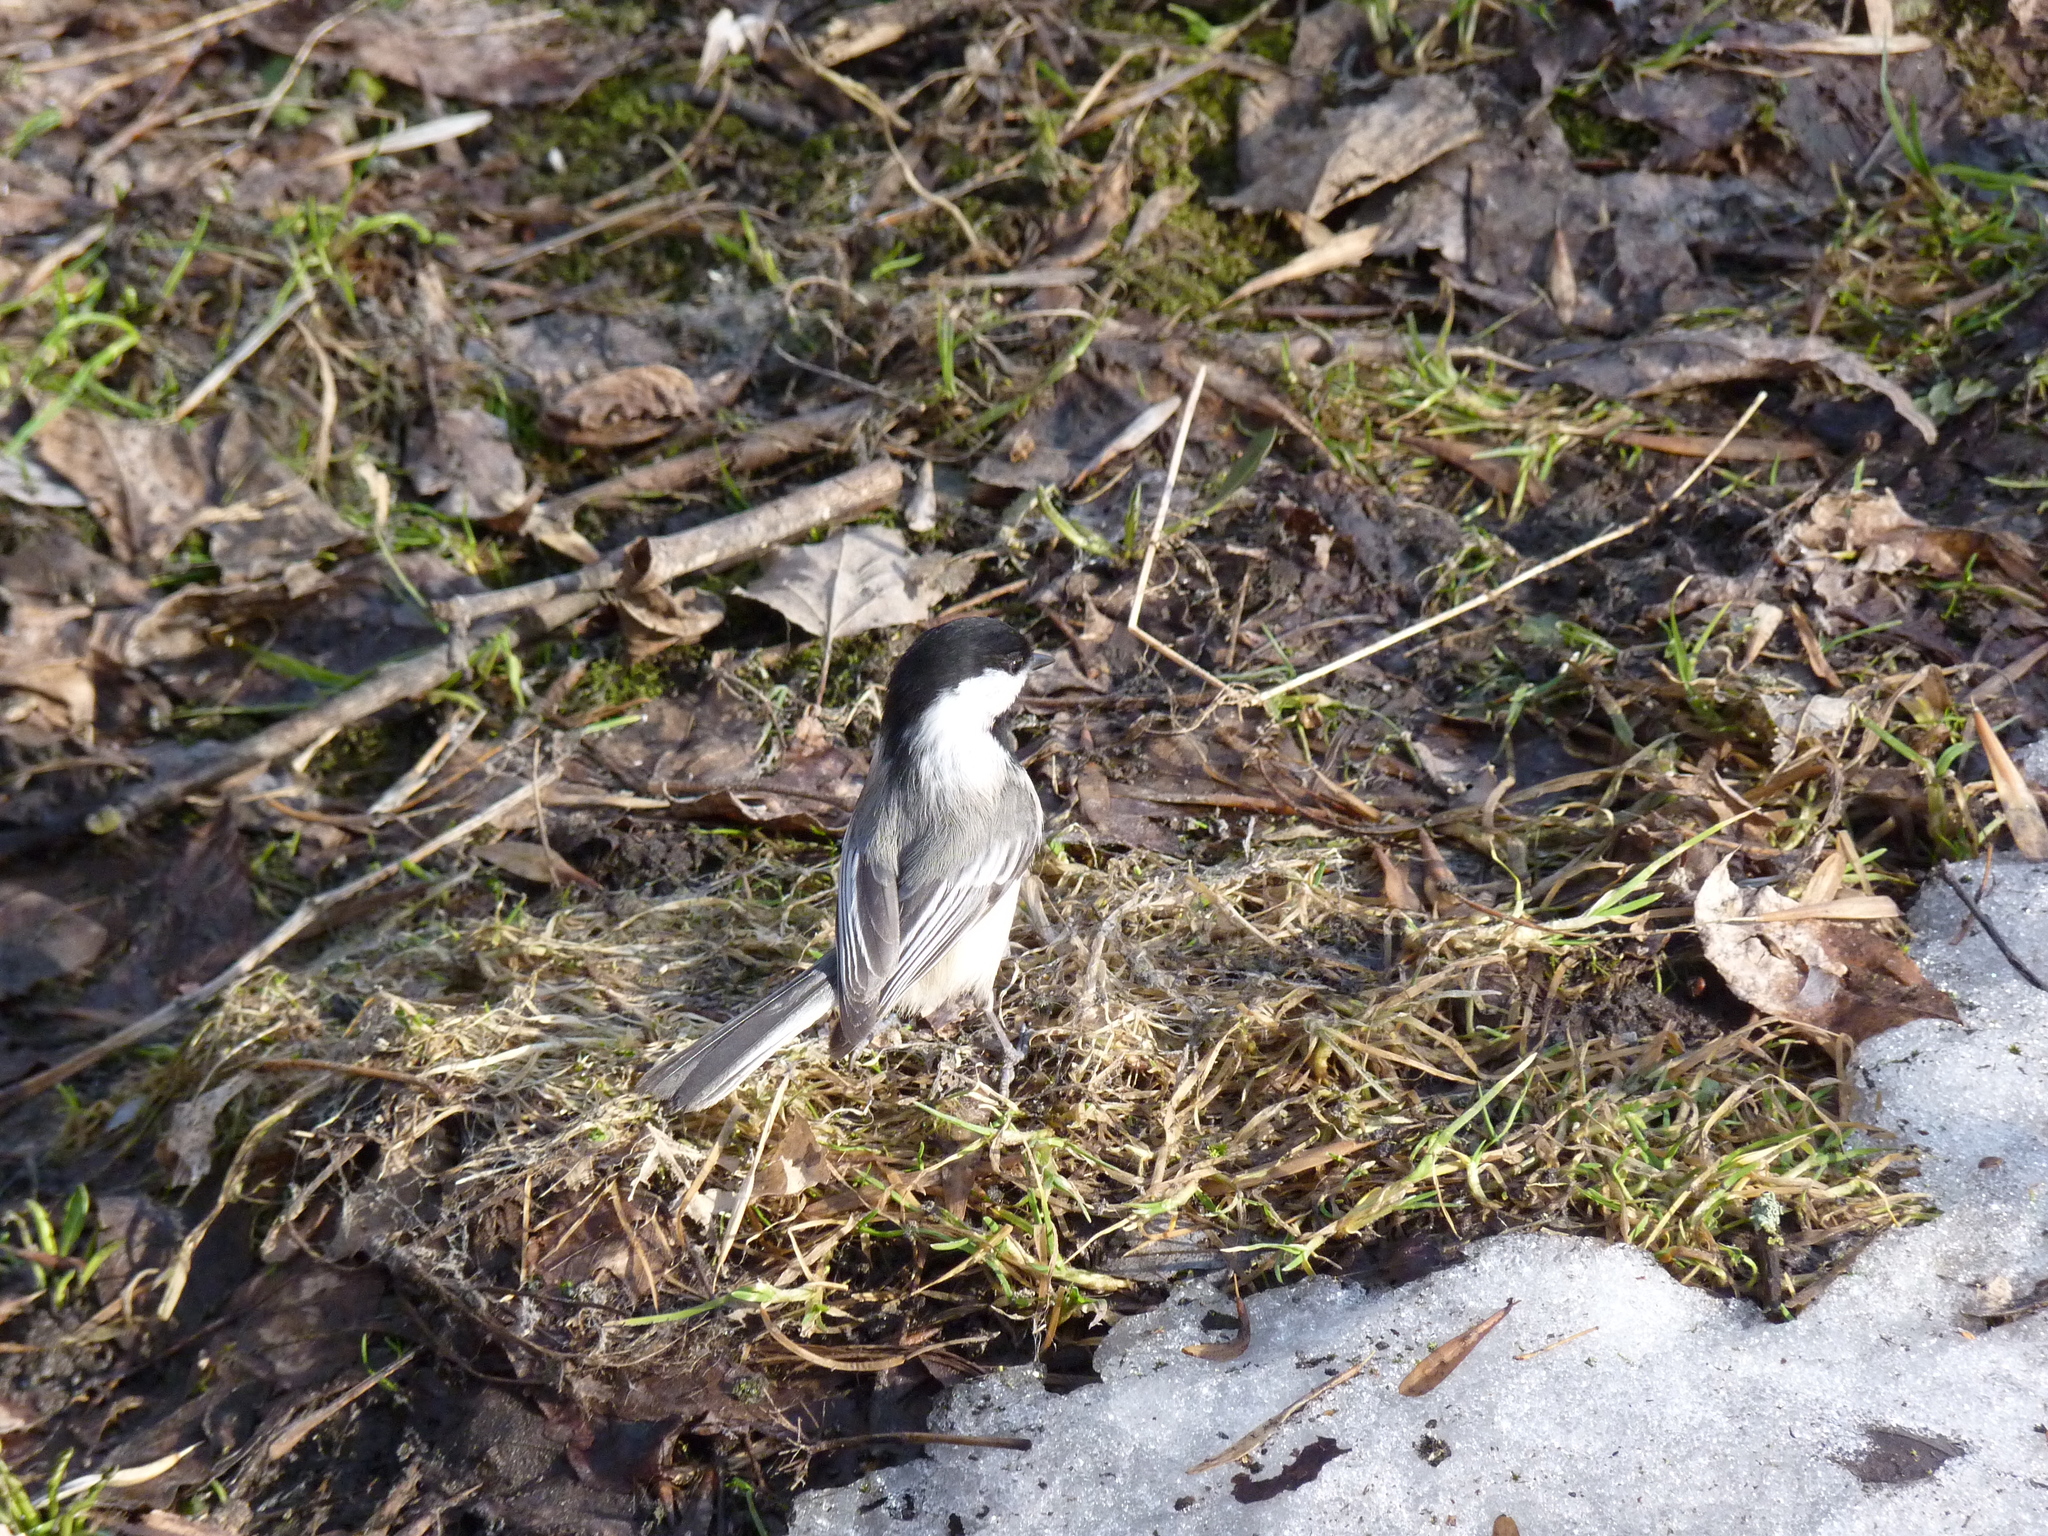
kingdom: Animalia
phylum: Chordata
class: Aves
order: Passeriformes
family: Paridae
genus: Poecile
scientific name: Poecile atricapillus
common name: Black-capped chickadee
